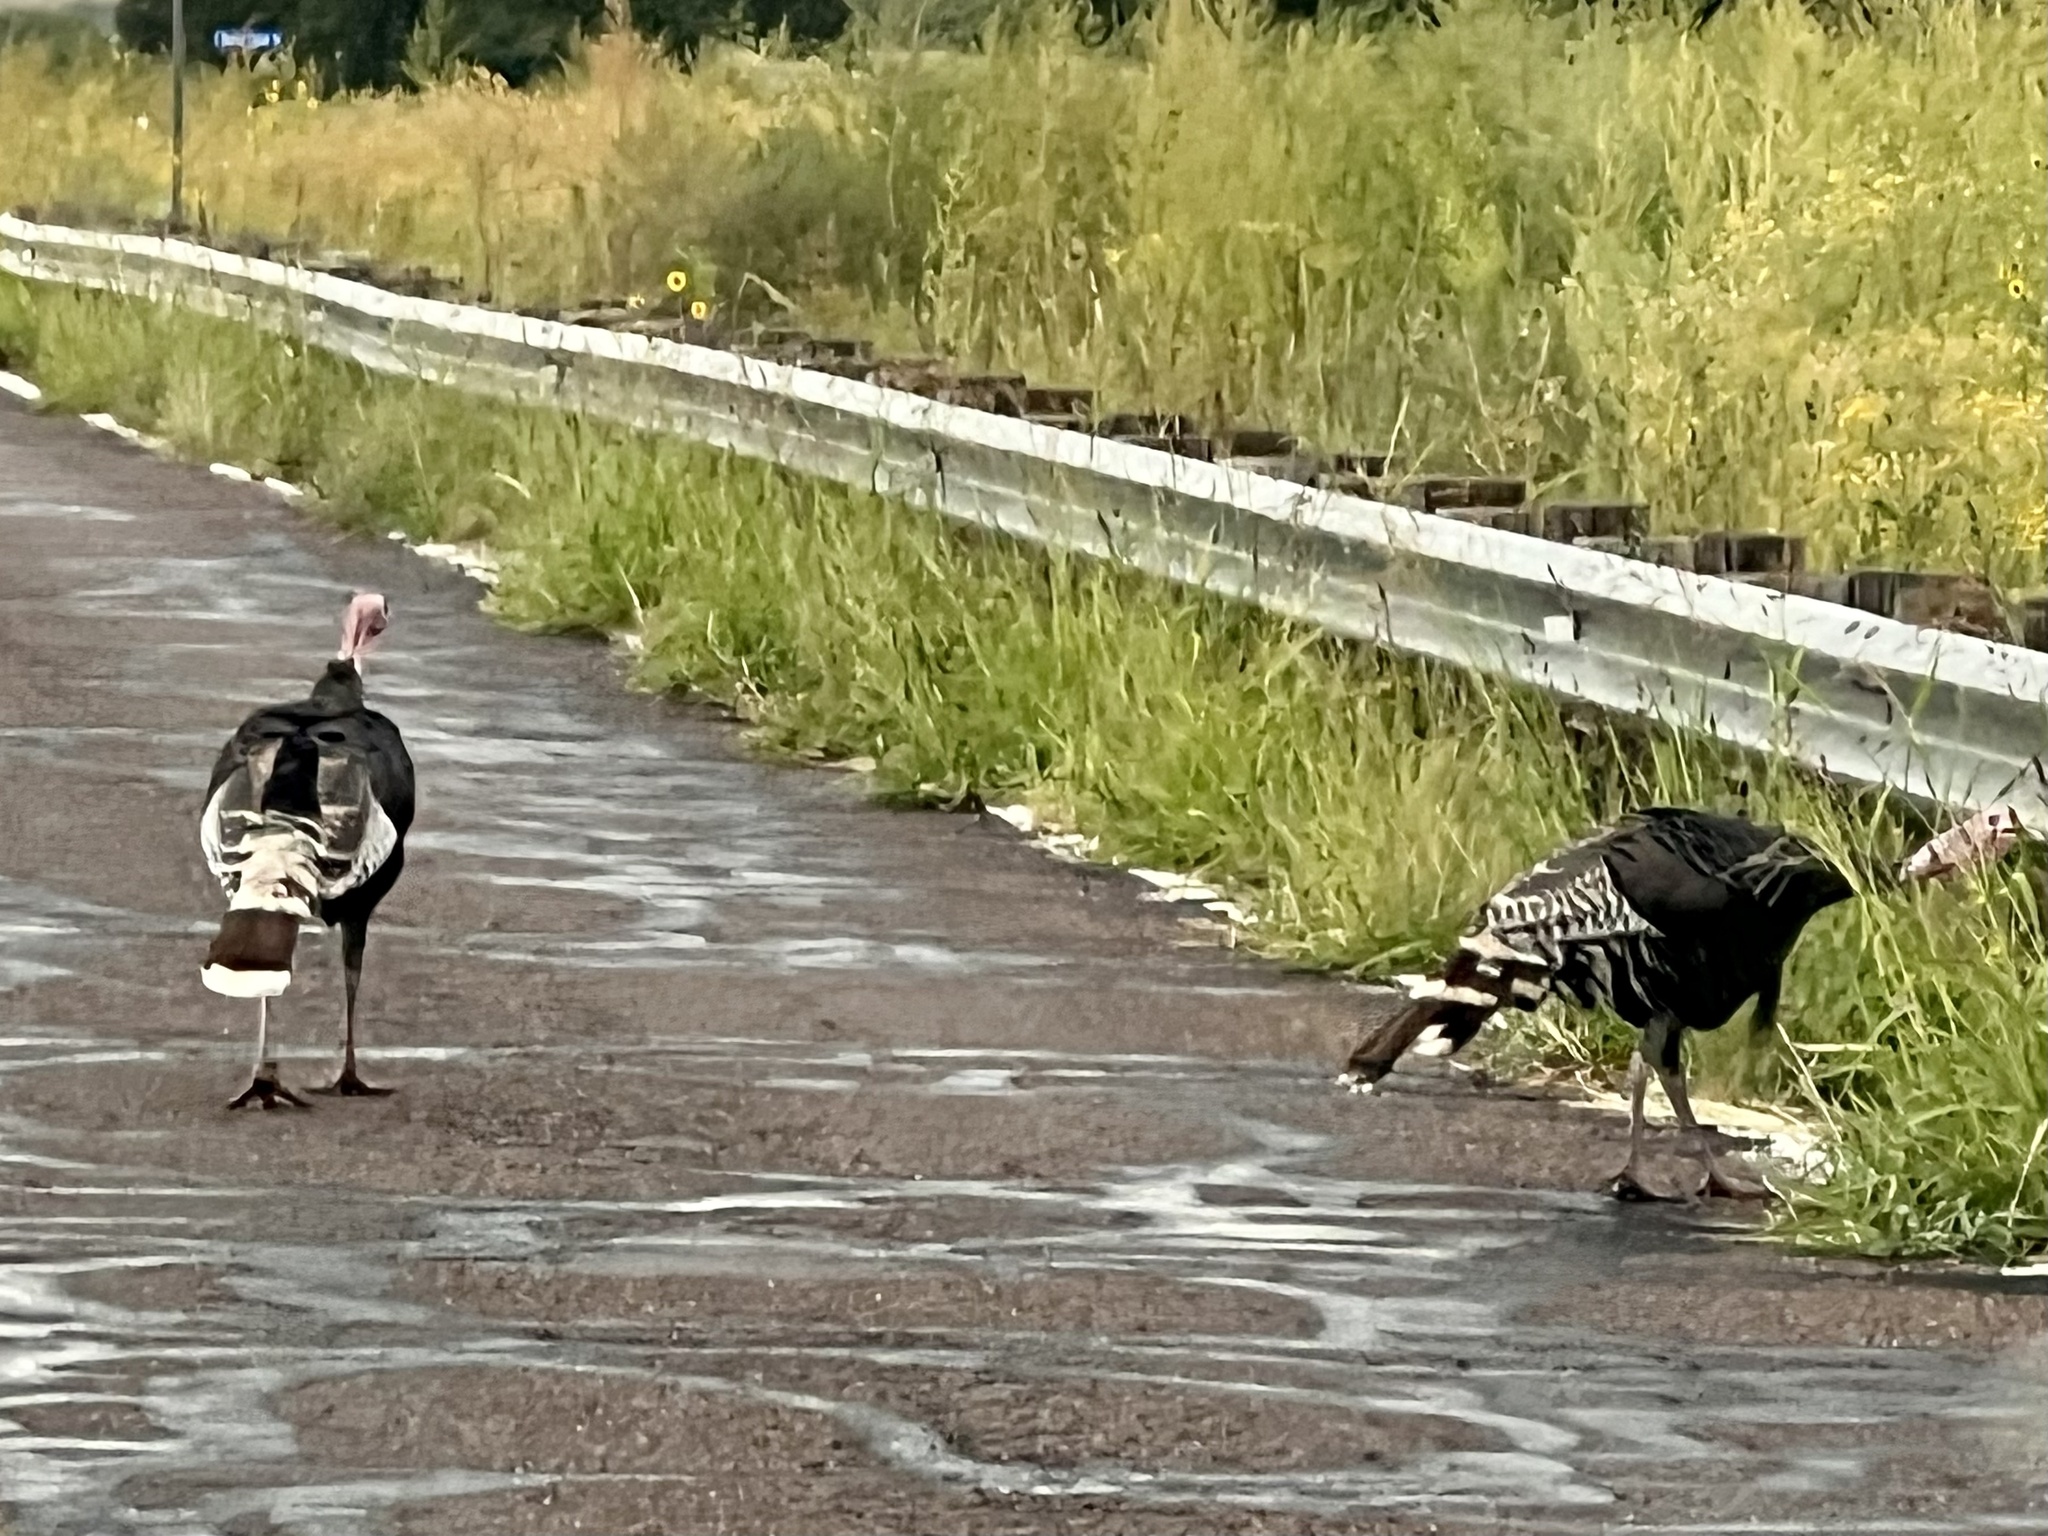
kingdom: Animalia
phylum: Chordata
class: Aves
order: Galliformes
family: Phasianidae
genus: Meleagris
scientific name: Meleagris gallopavo
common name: Wild turkey
